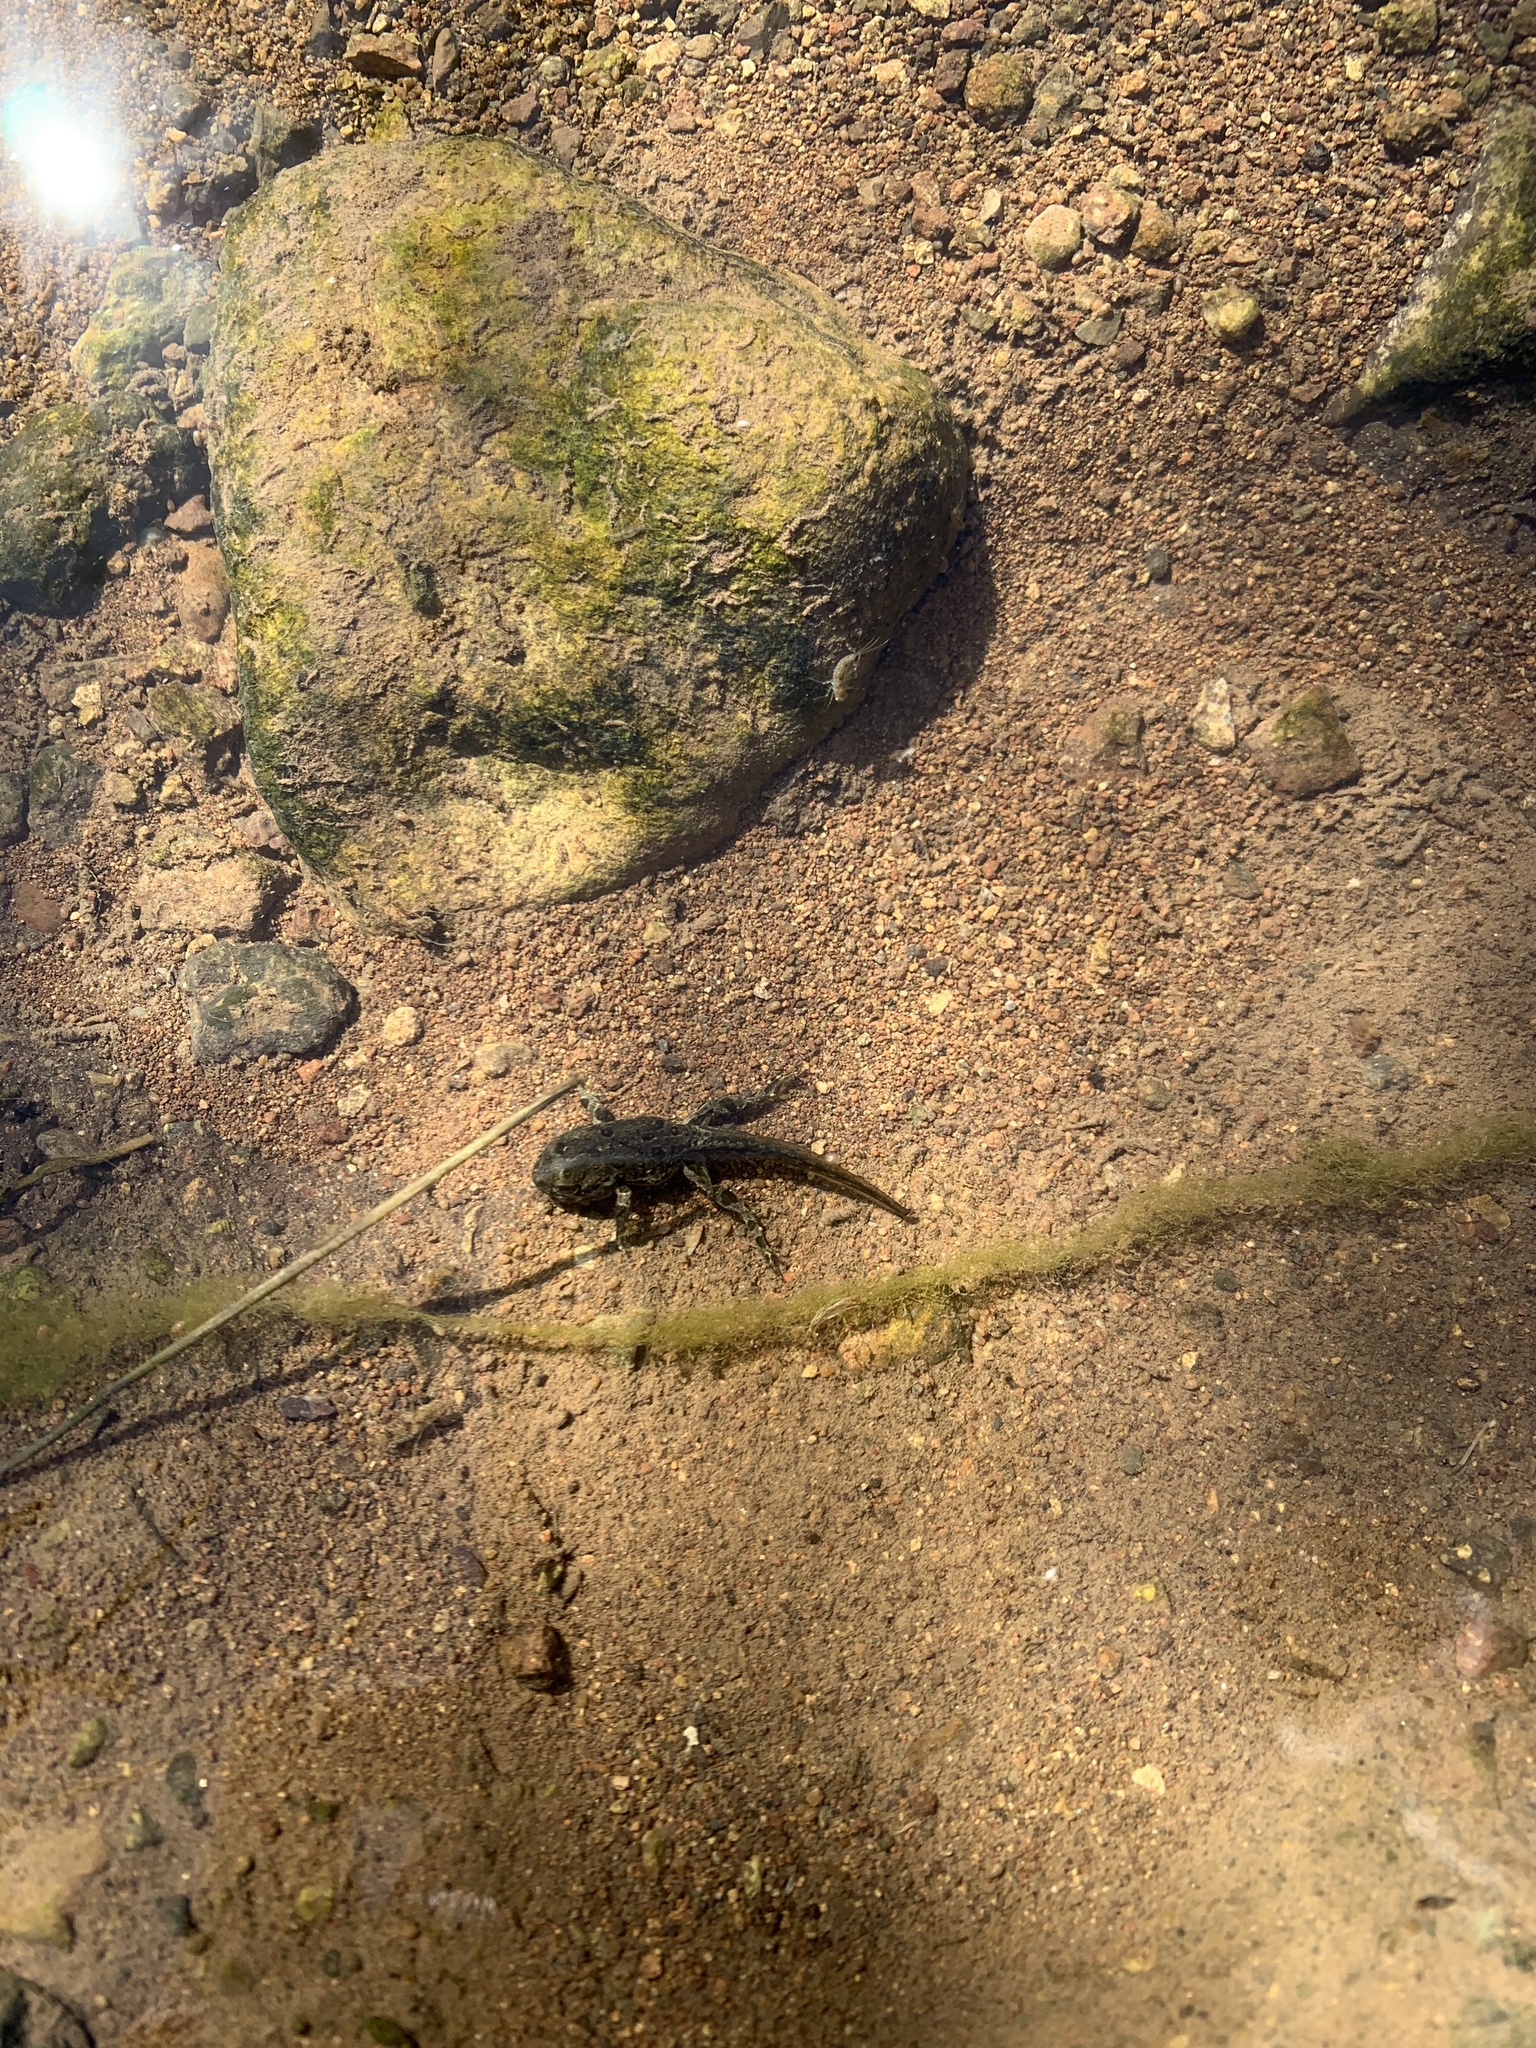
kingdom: Animalia
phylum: Chordata
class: Amphibia
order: Anura
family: Bufonidae
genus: Anaxyrus
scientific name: Anaxyrus boreas
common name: Western toad
